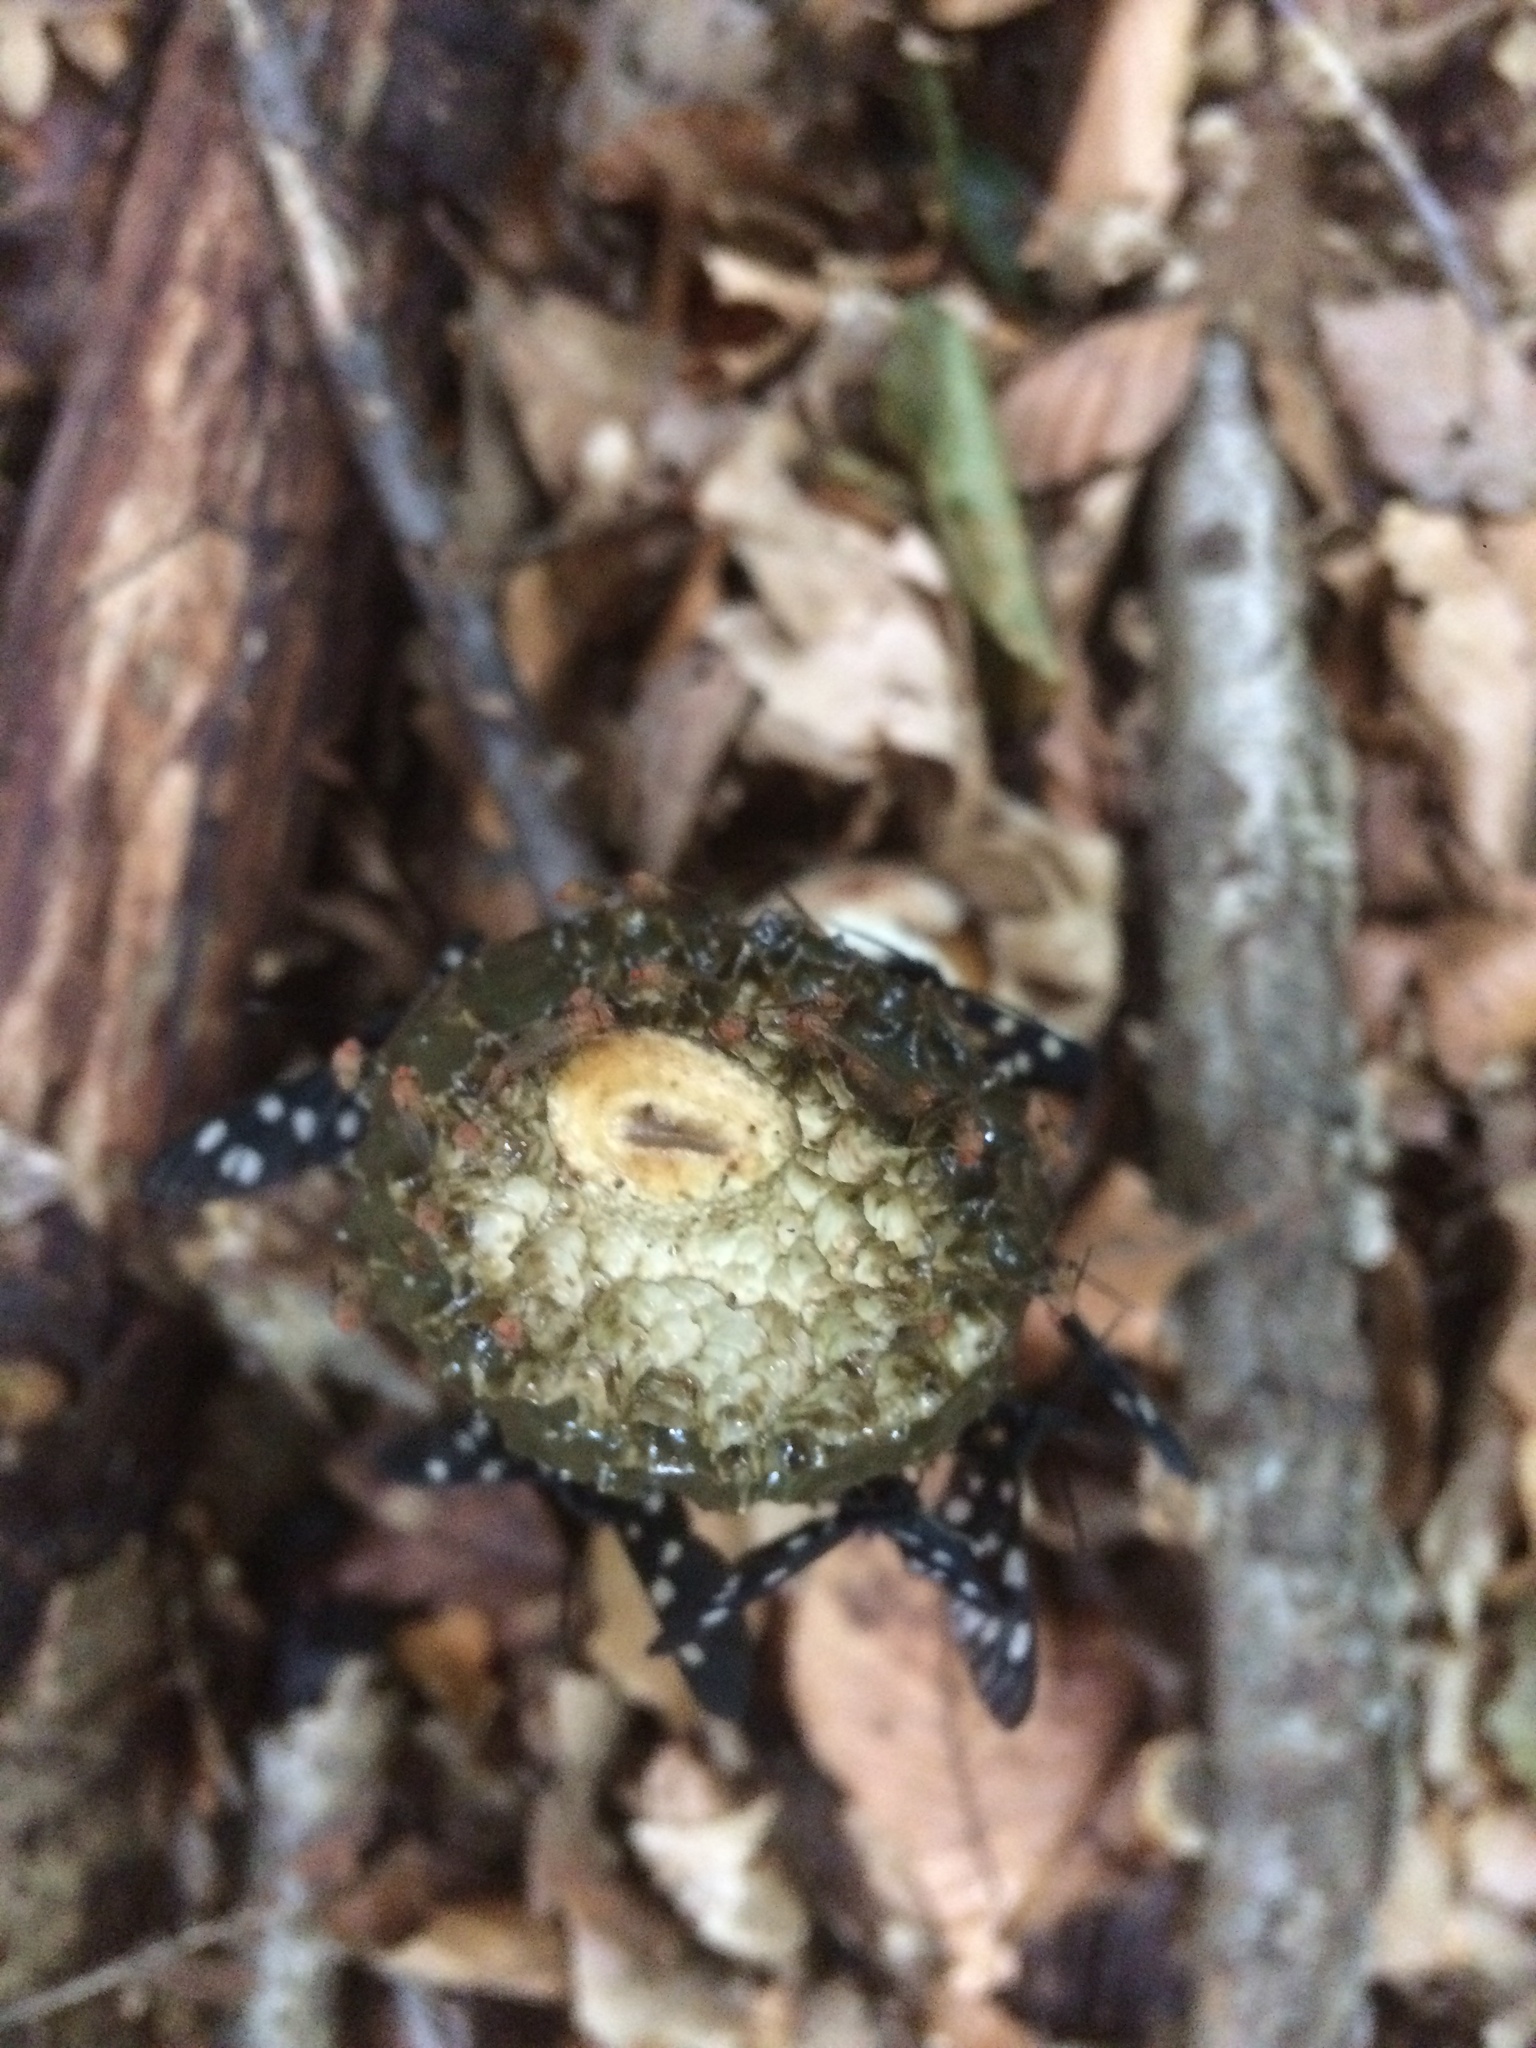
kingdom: Fungi
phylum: Basidiomycota
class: Agaricomycetes
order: Phallales
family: Phallaceae
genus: Phallus
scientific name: Phallus impudicus
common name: Common stinkhorn
